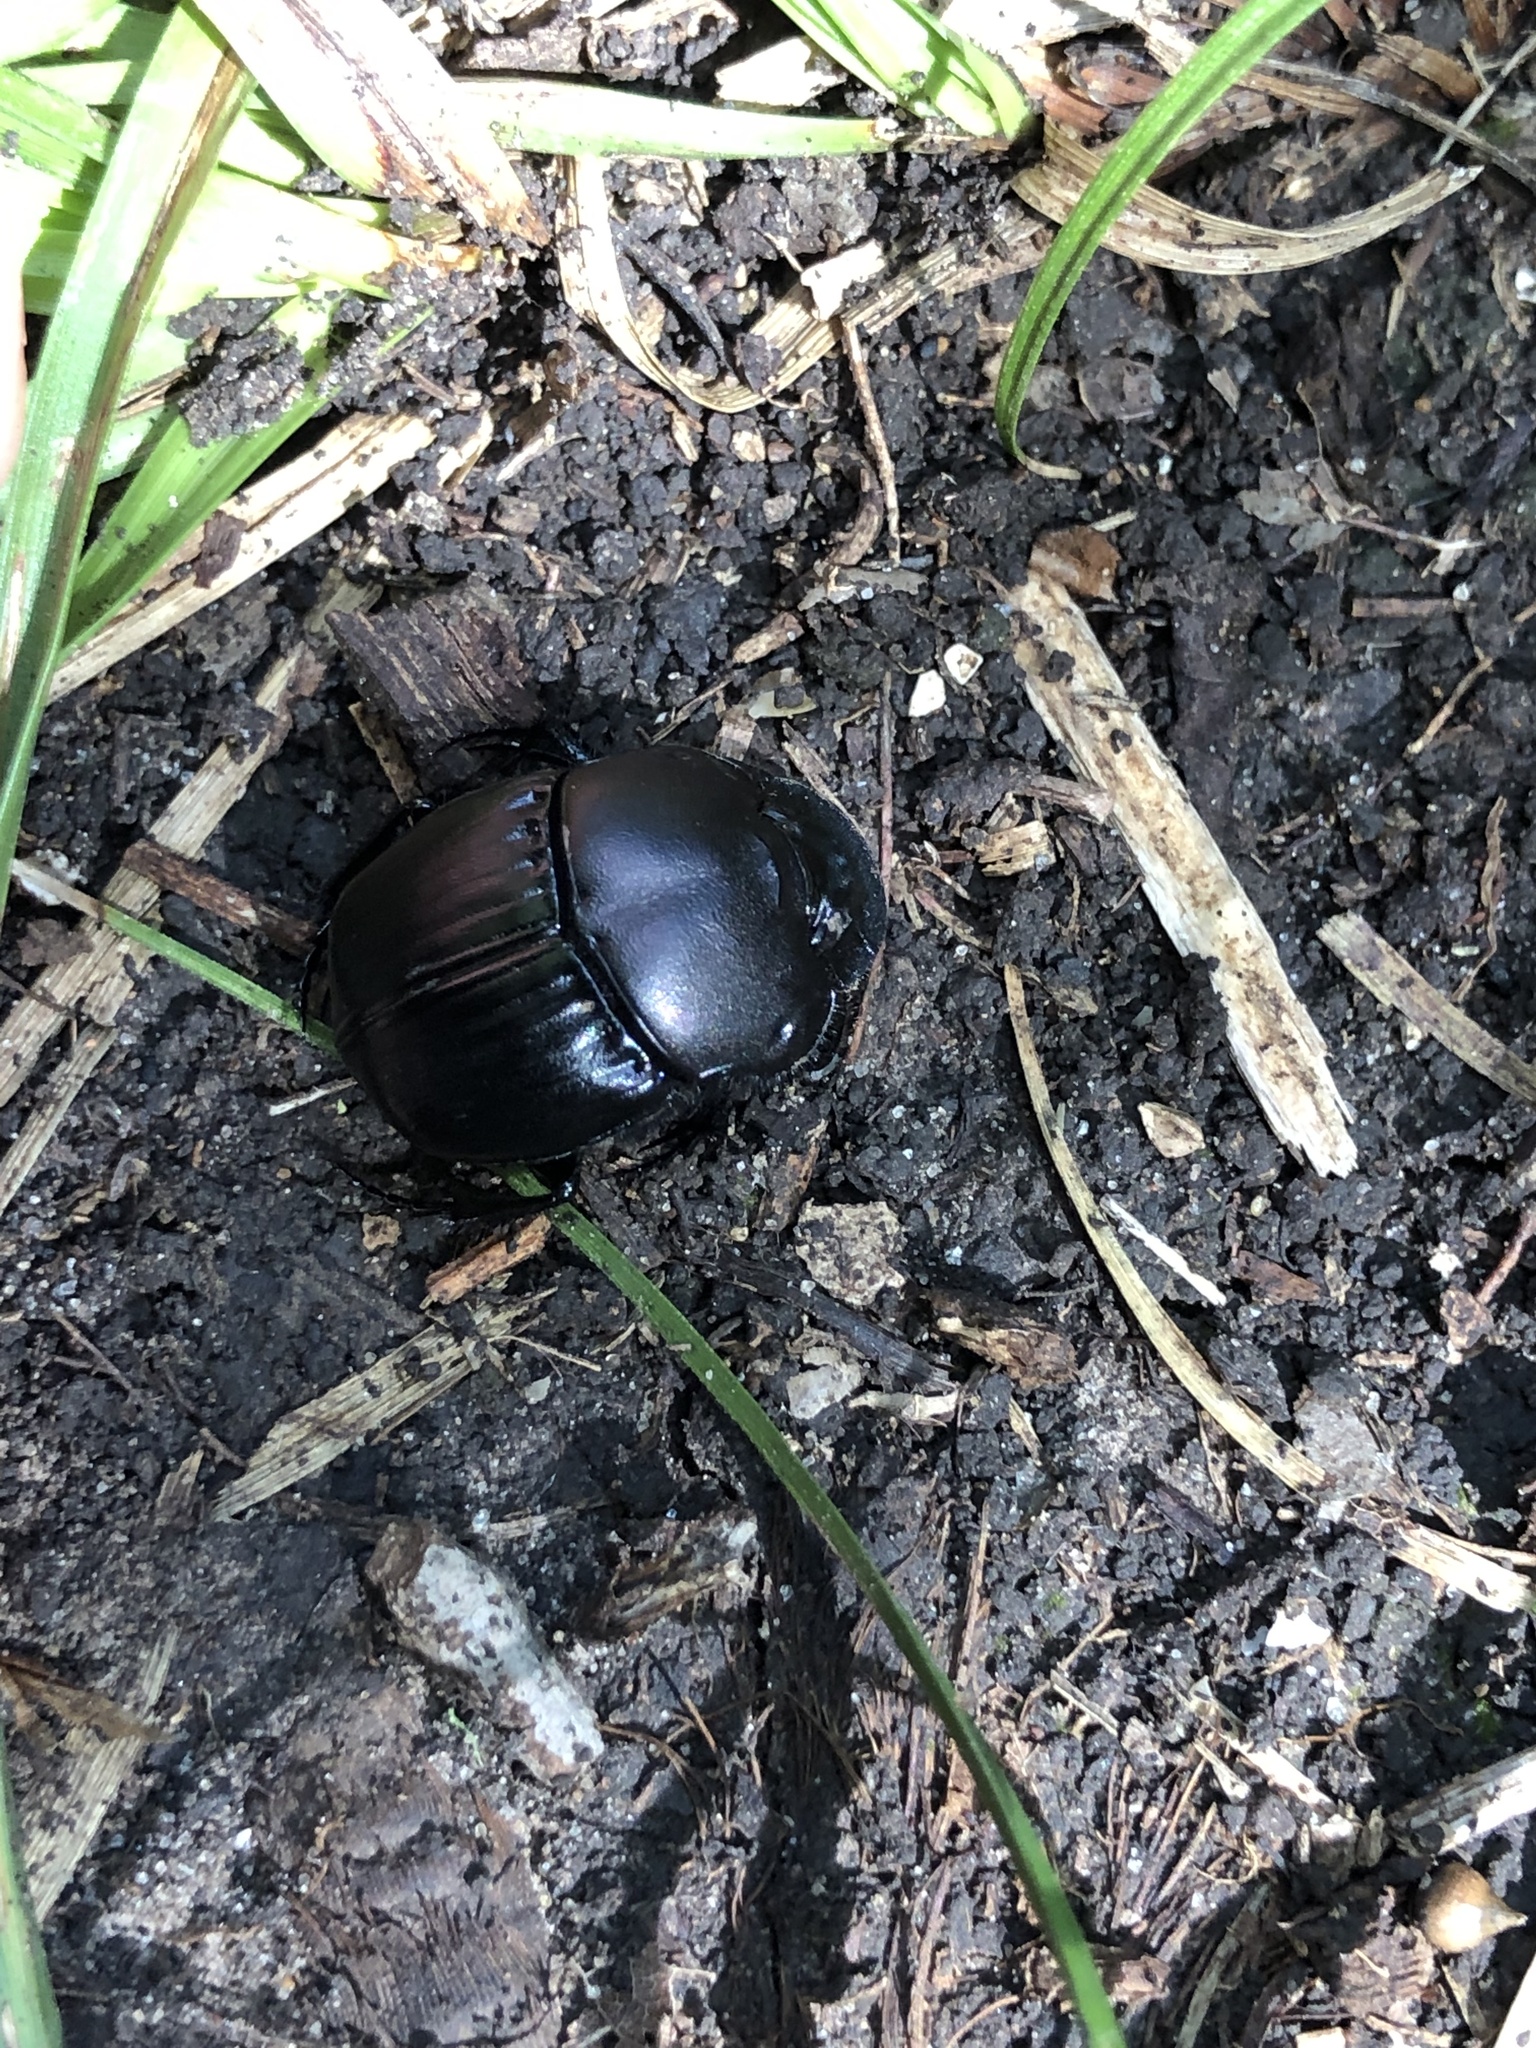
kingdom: Animalia
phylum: Arthropoda
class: Insecta
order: Coleoptera
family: Scarabaeidae
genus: Phanaeus
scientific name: Phanaeus texensis
